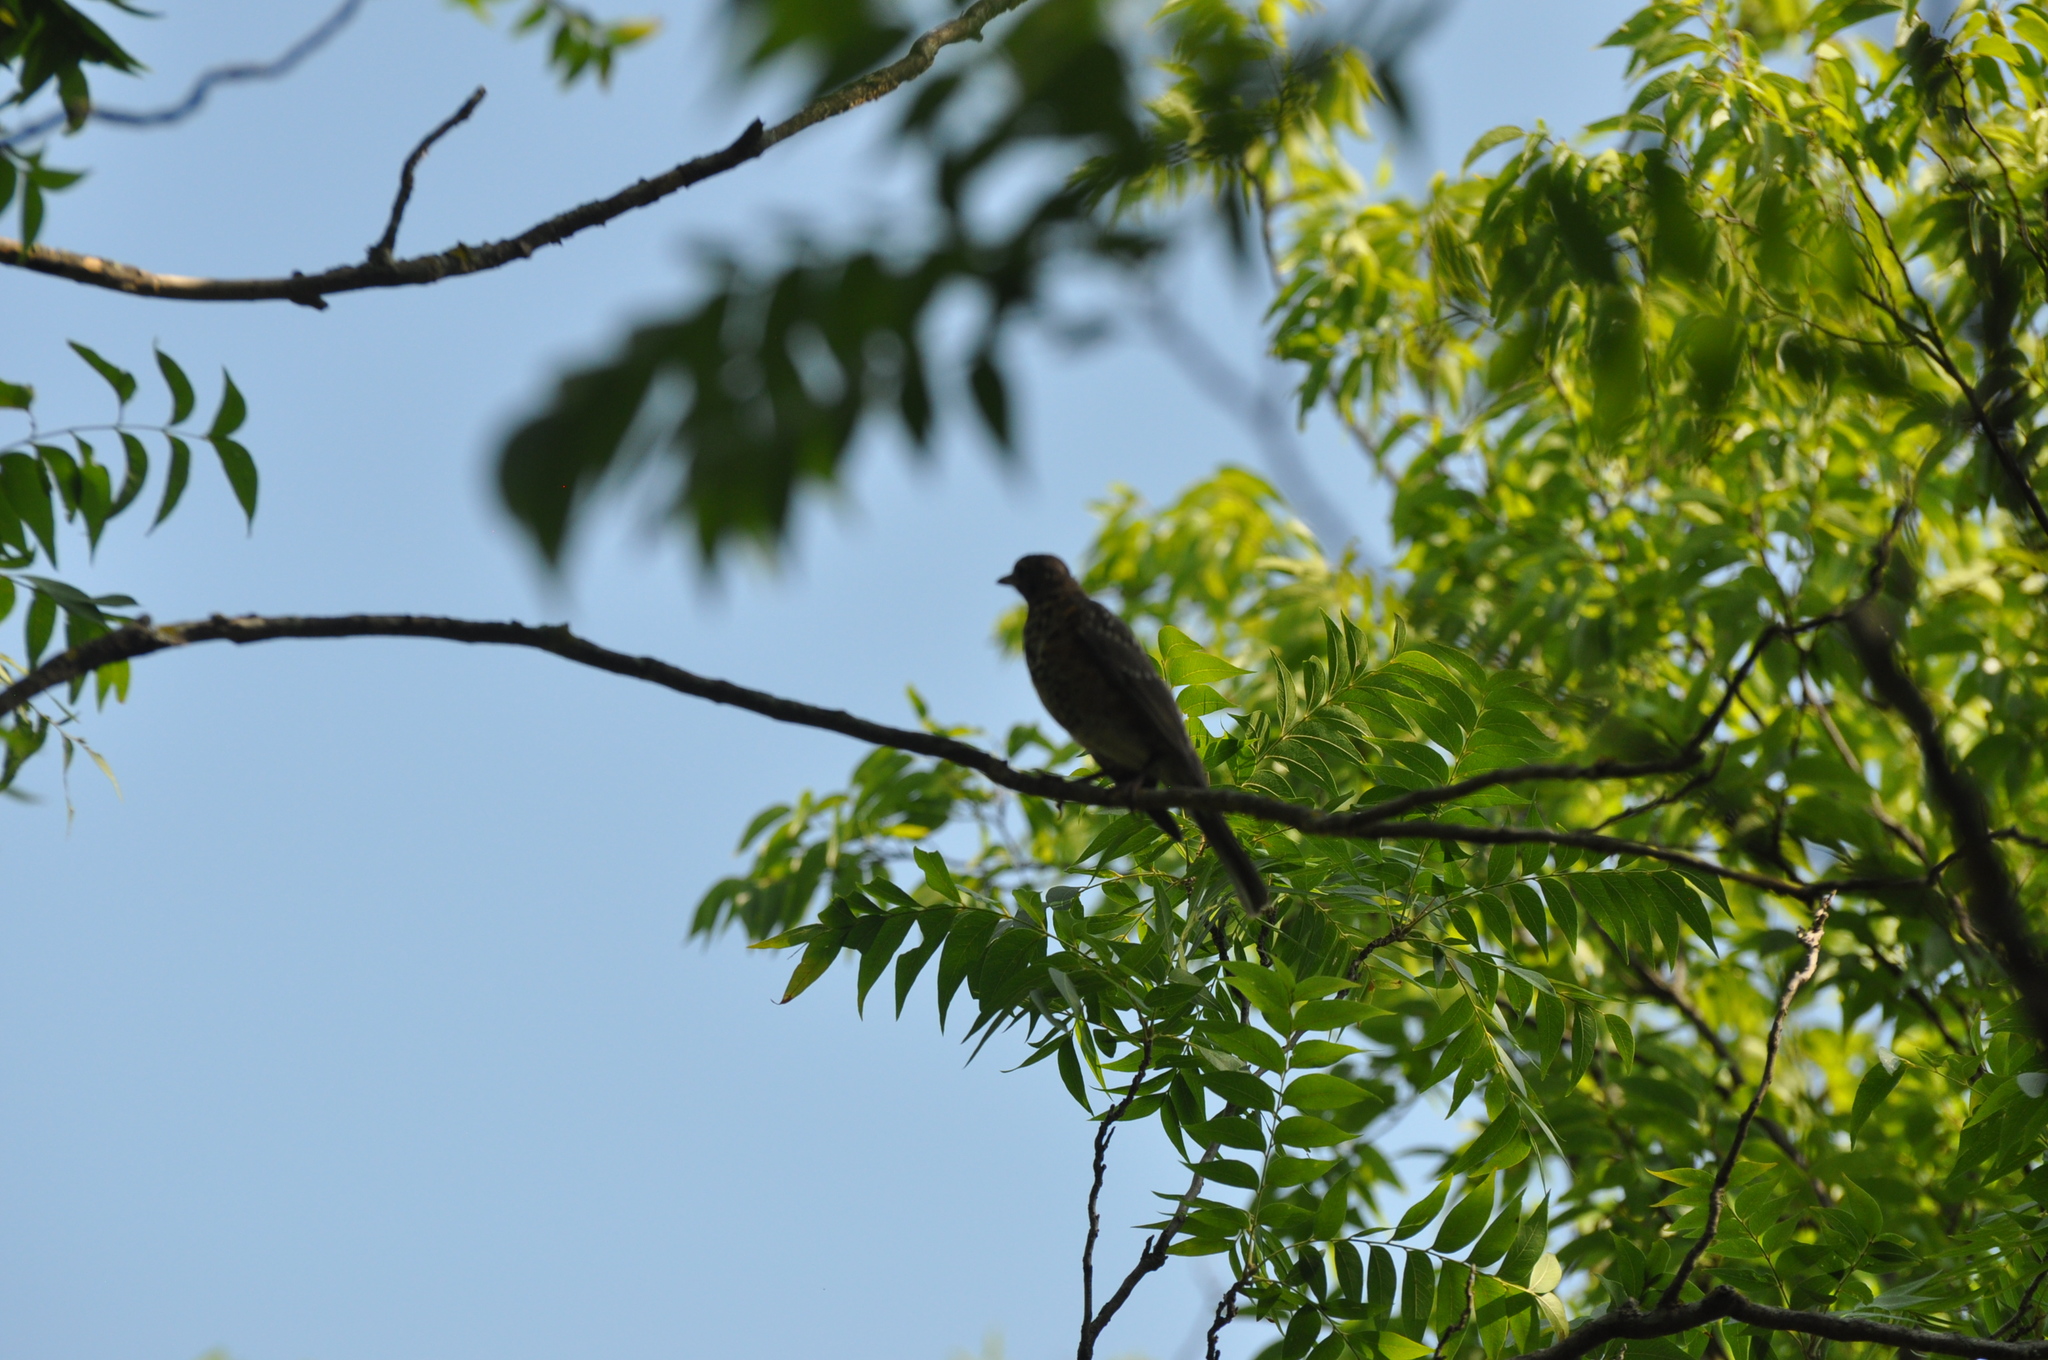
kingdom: Animalia
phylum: Chordata
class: Aves
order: Passeriformes
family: Turdidae
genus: Turdus
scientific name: Turdus migratorius
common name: American robin
